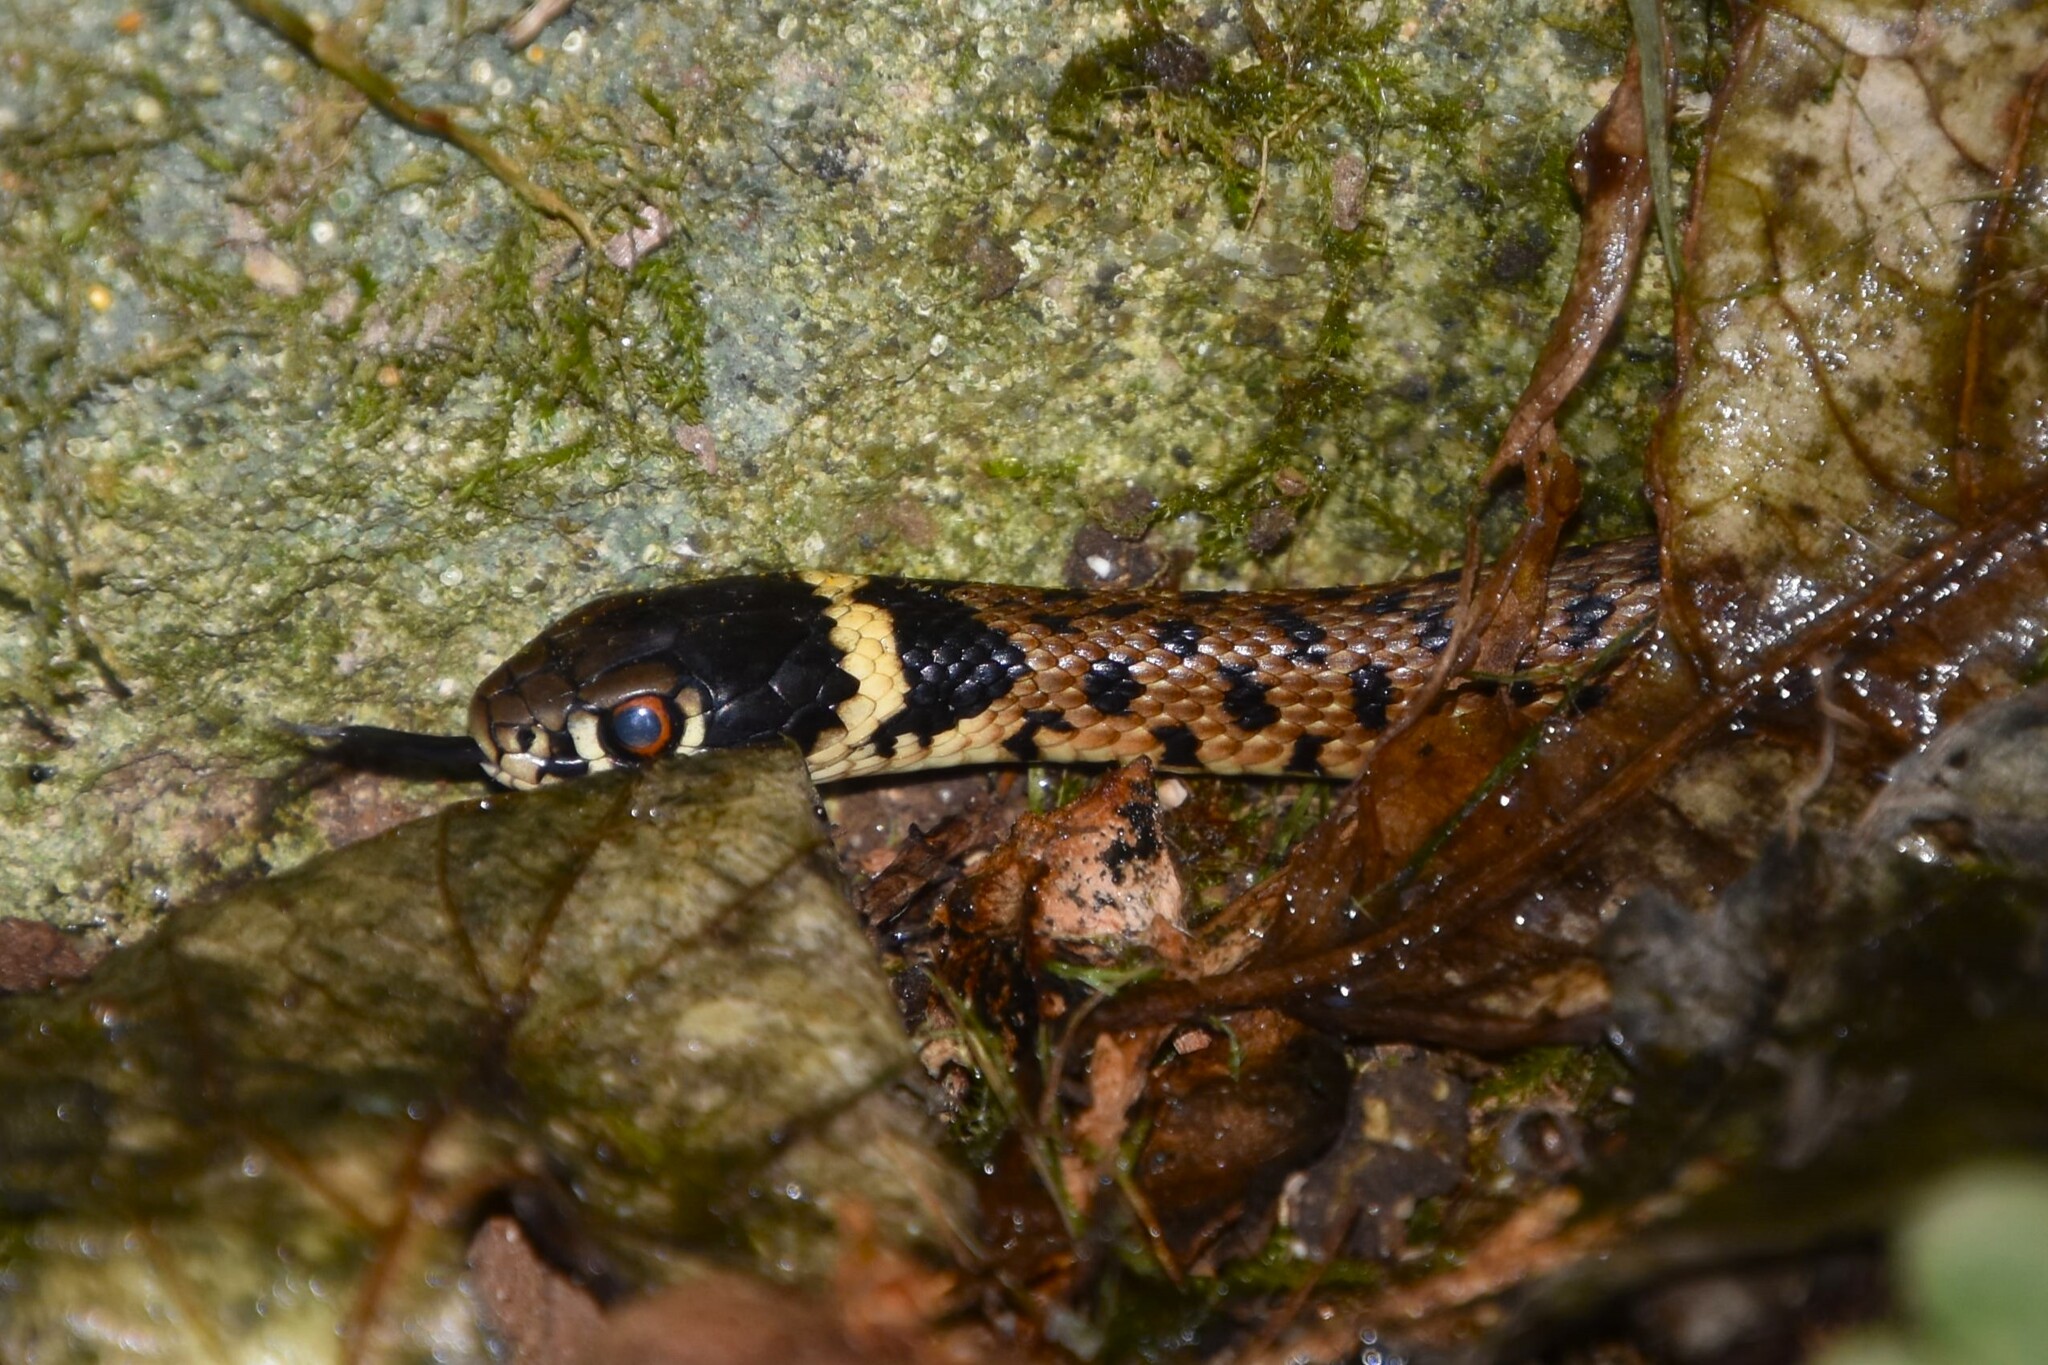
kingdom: Animalia
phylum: Chordata
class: Squamata
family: Colubridae
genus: Natrix
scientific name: Natrix astreptophora
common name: Red-eyed grass snake
